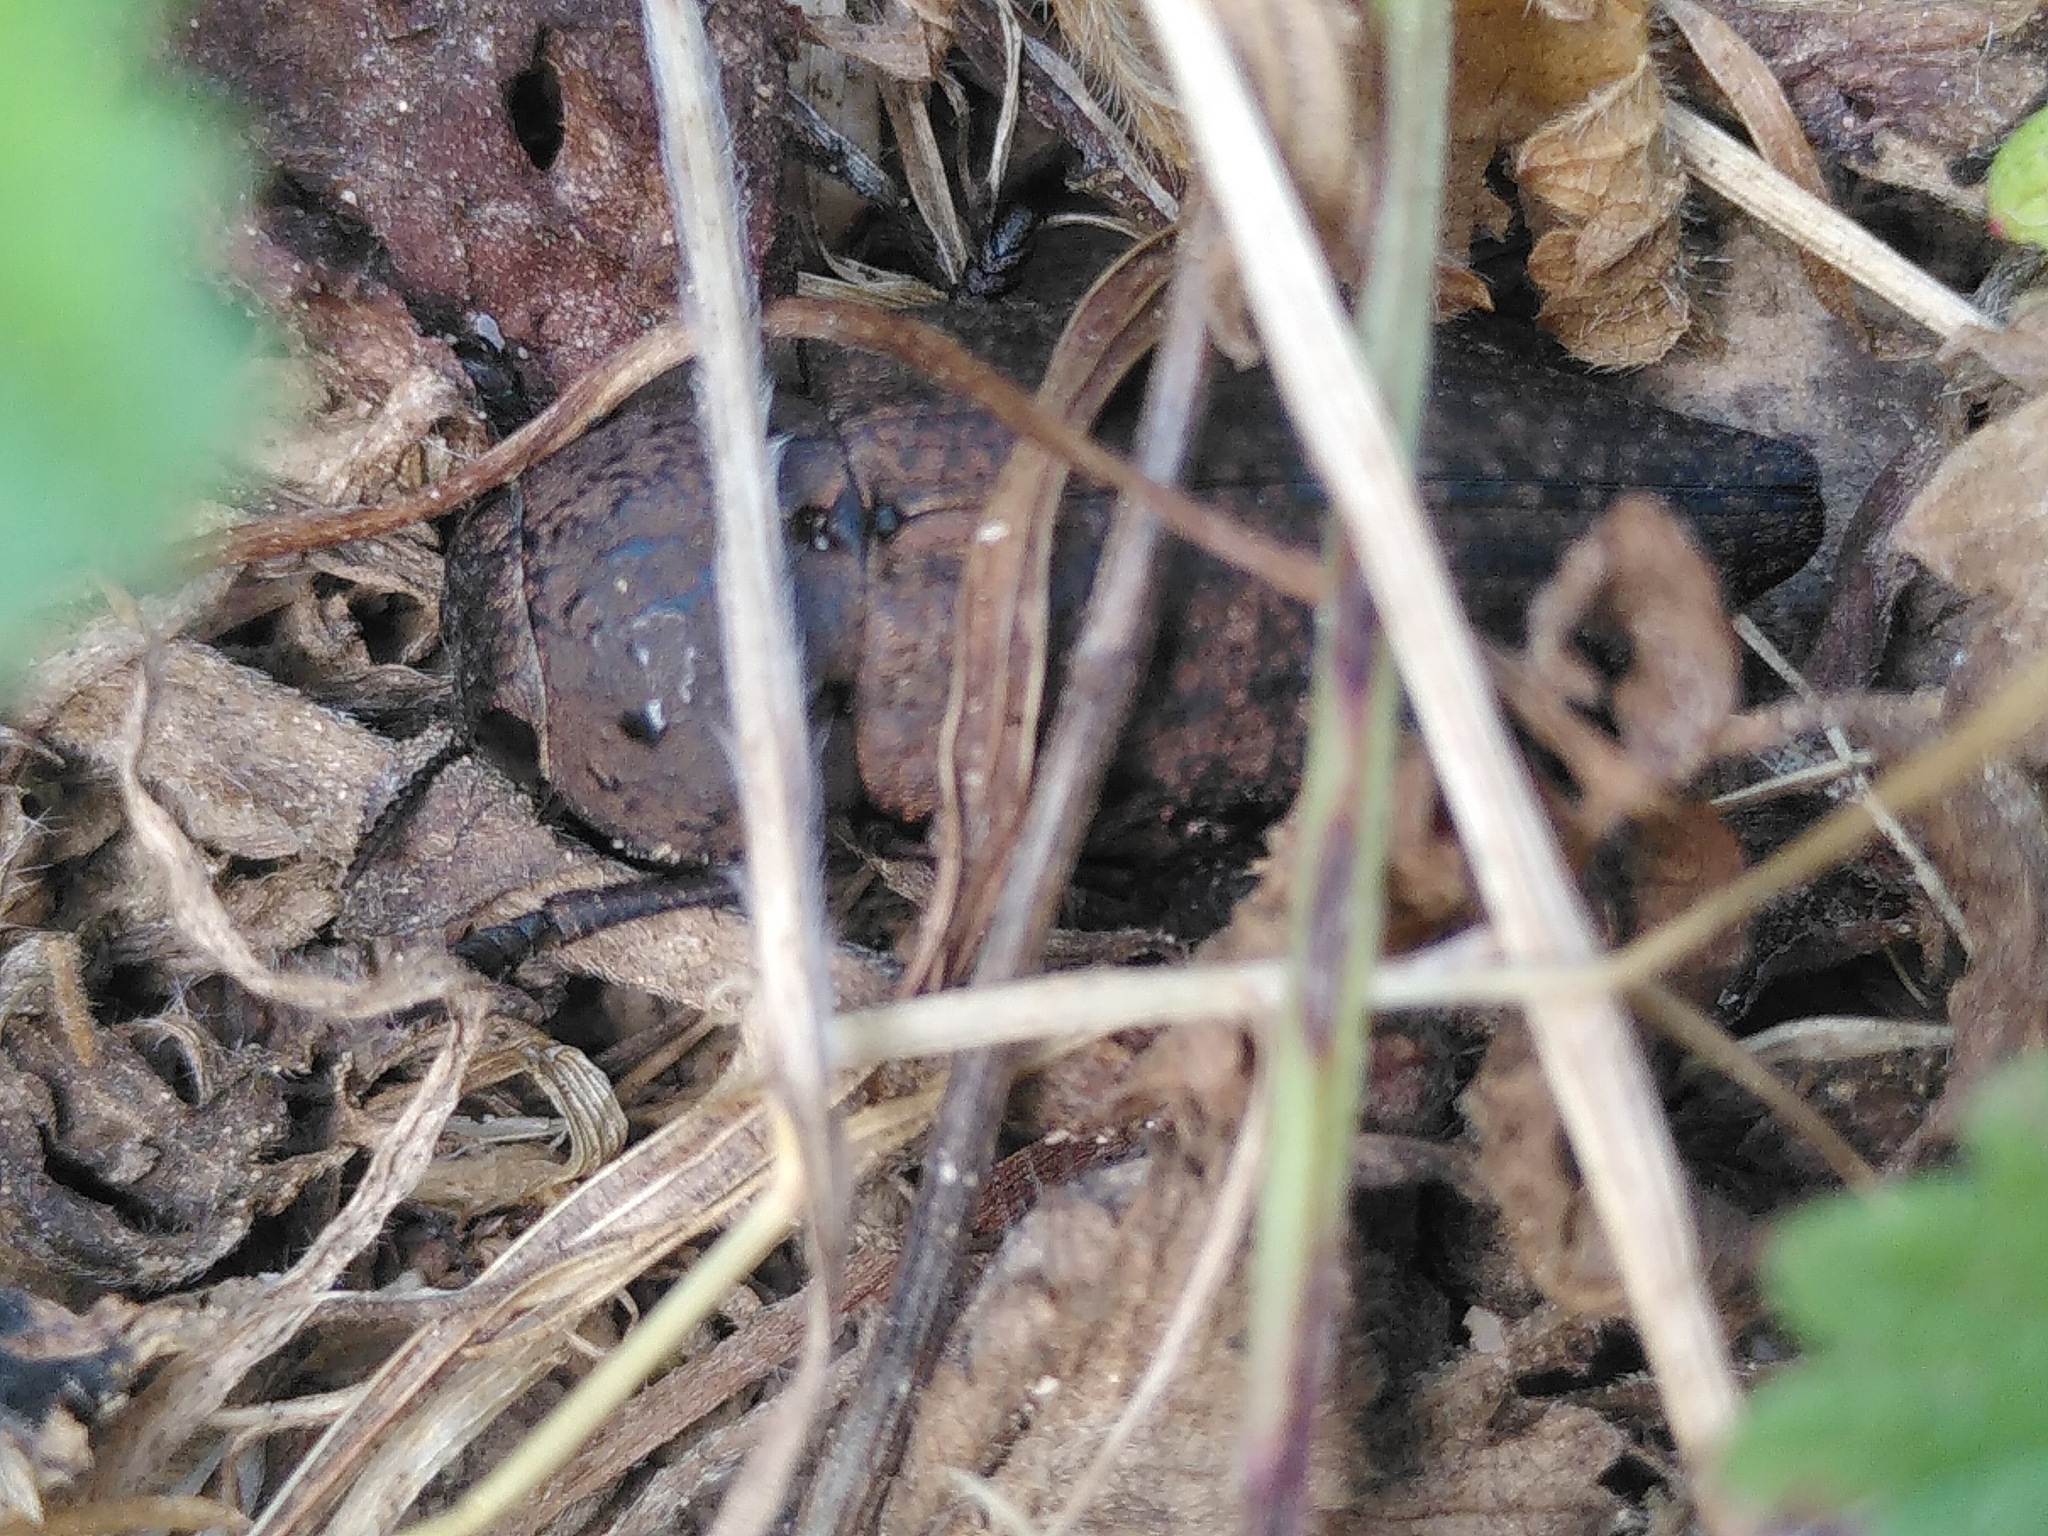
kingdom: Animalia
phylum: Arthropoda
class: Insecta
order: Coleoptera
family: Buprestidae
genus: Capnodis
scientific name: Capnodis tenebricosa
